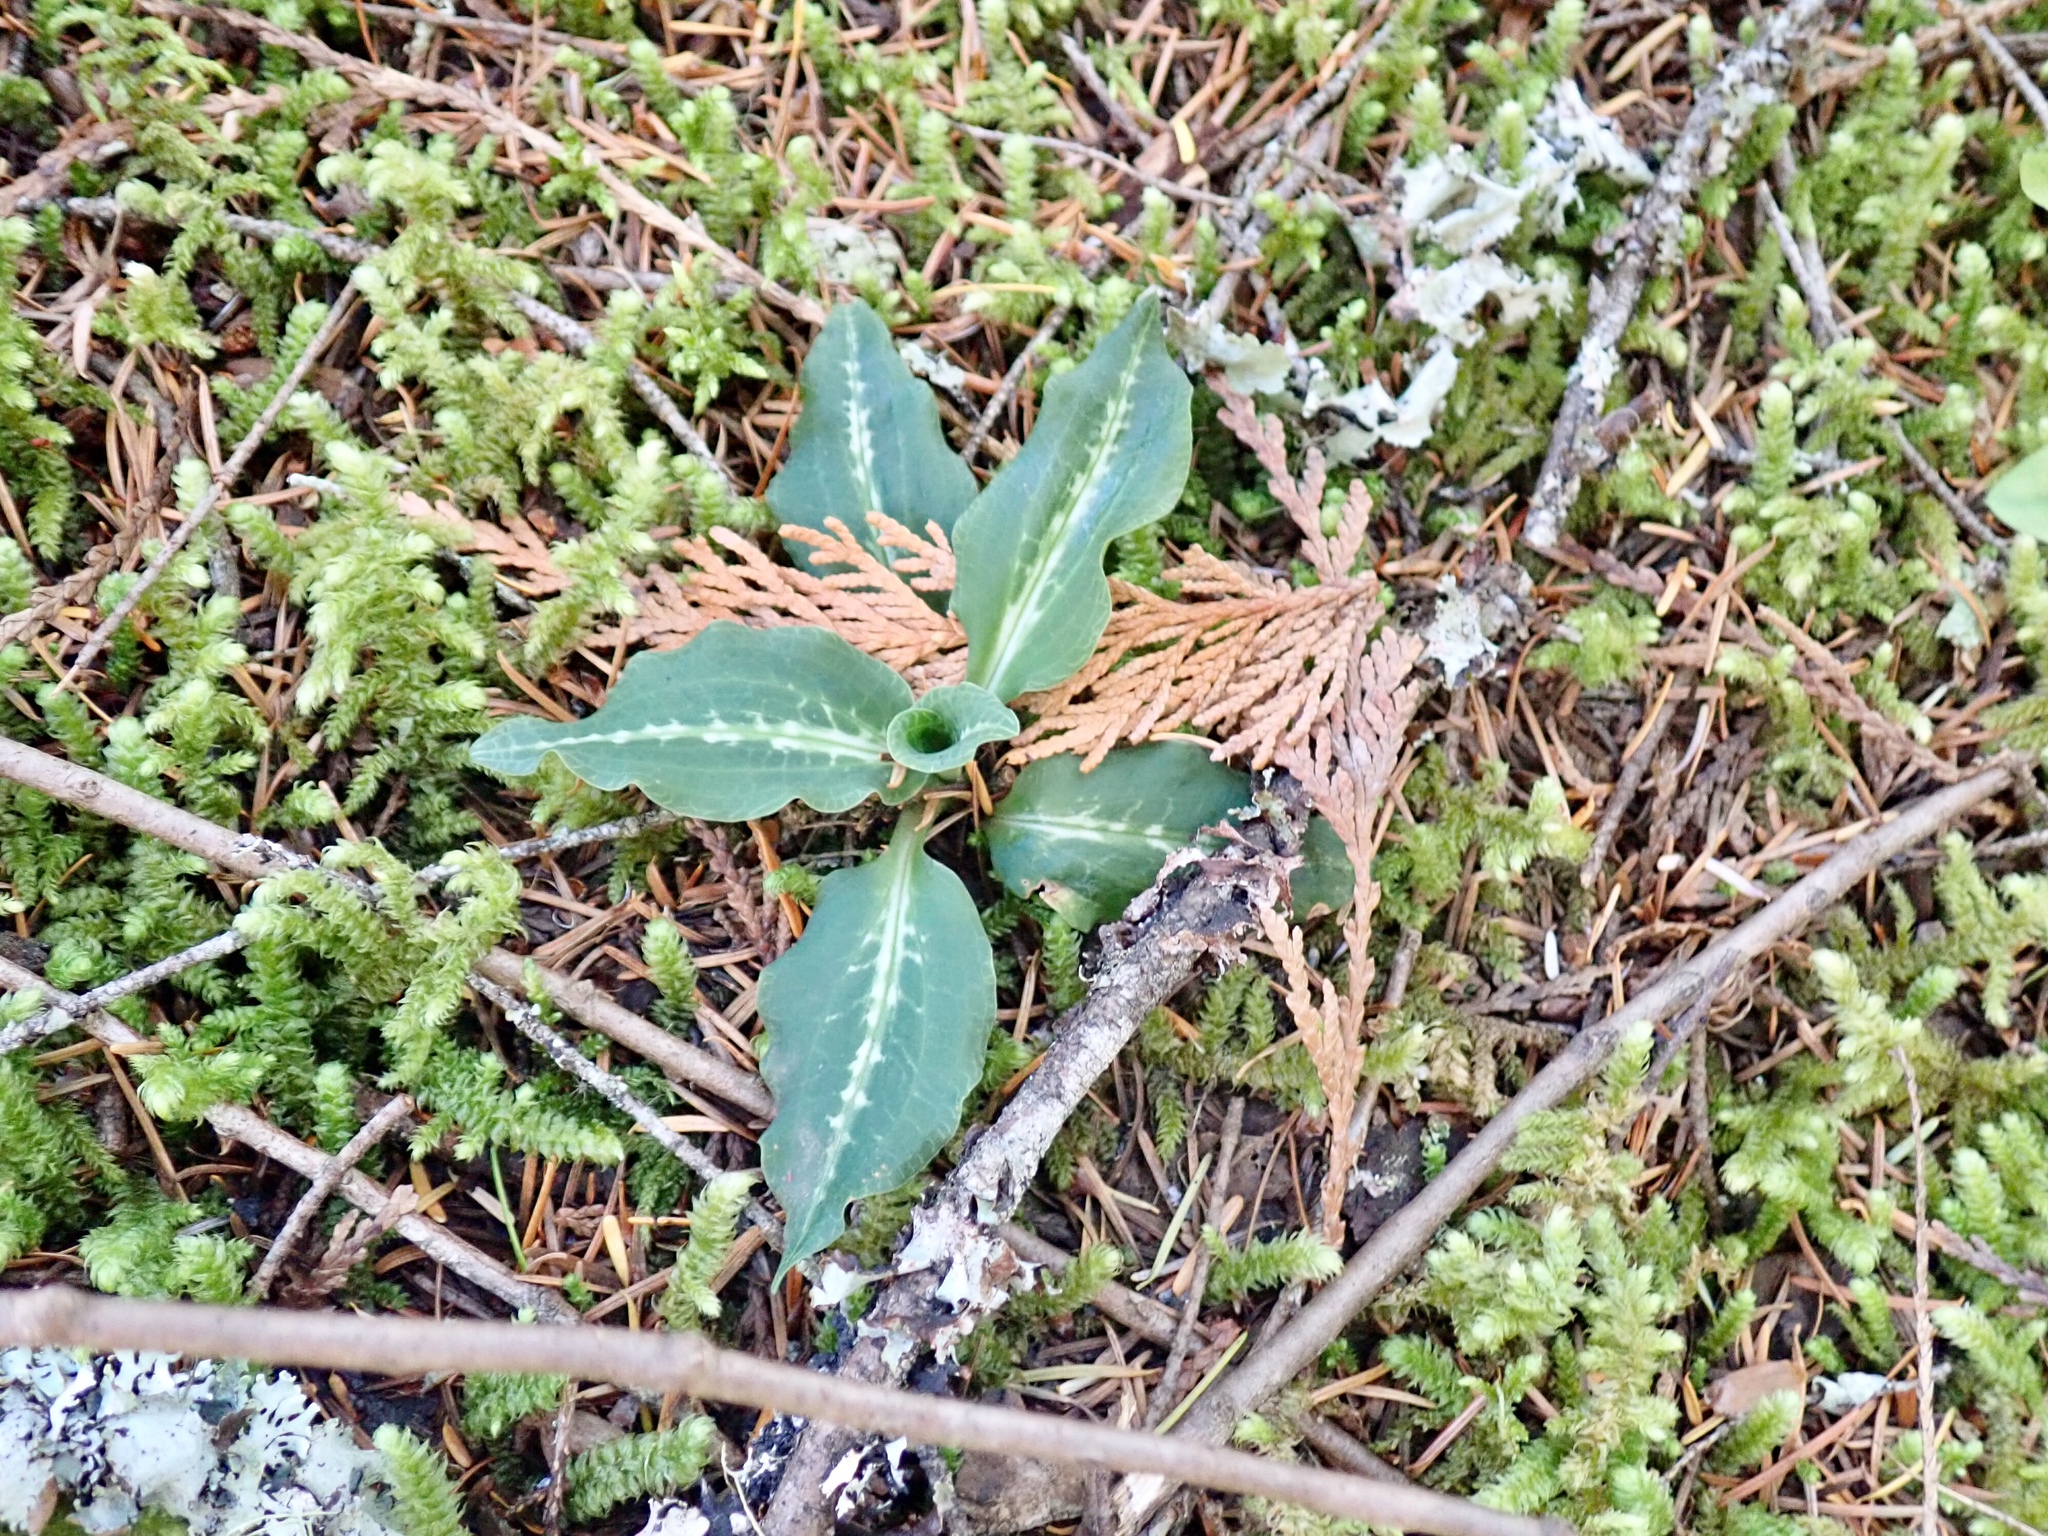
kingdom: Plantae
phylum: Tracheophyta
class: Liliopsida
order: Asparagales
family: Orchidaceae
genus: Goodyera
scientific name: Goodyera oblongifolia
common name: Giant rattlesnake-plantain
